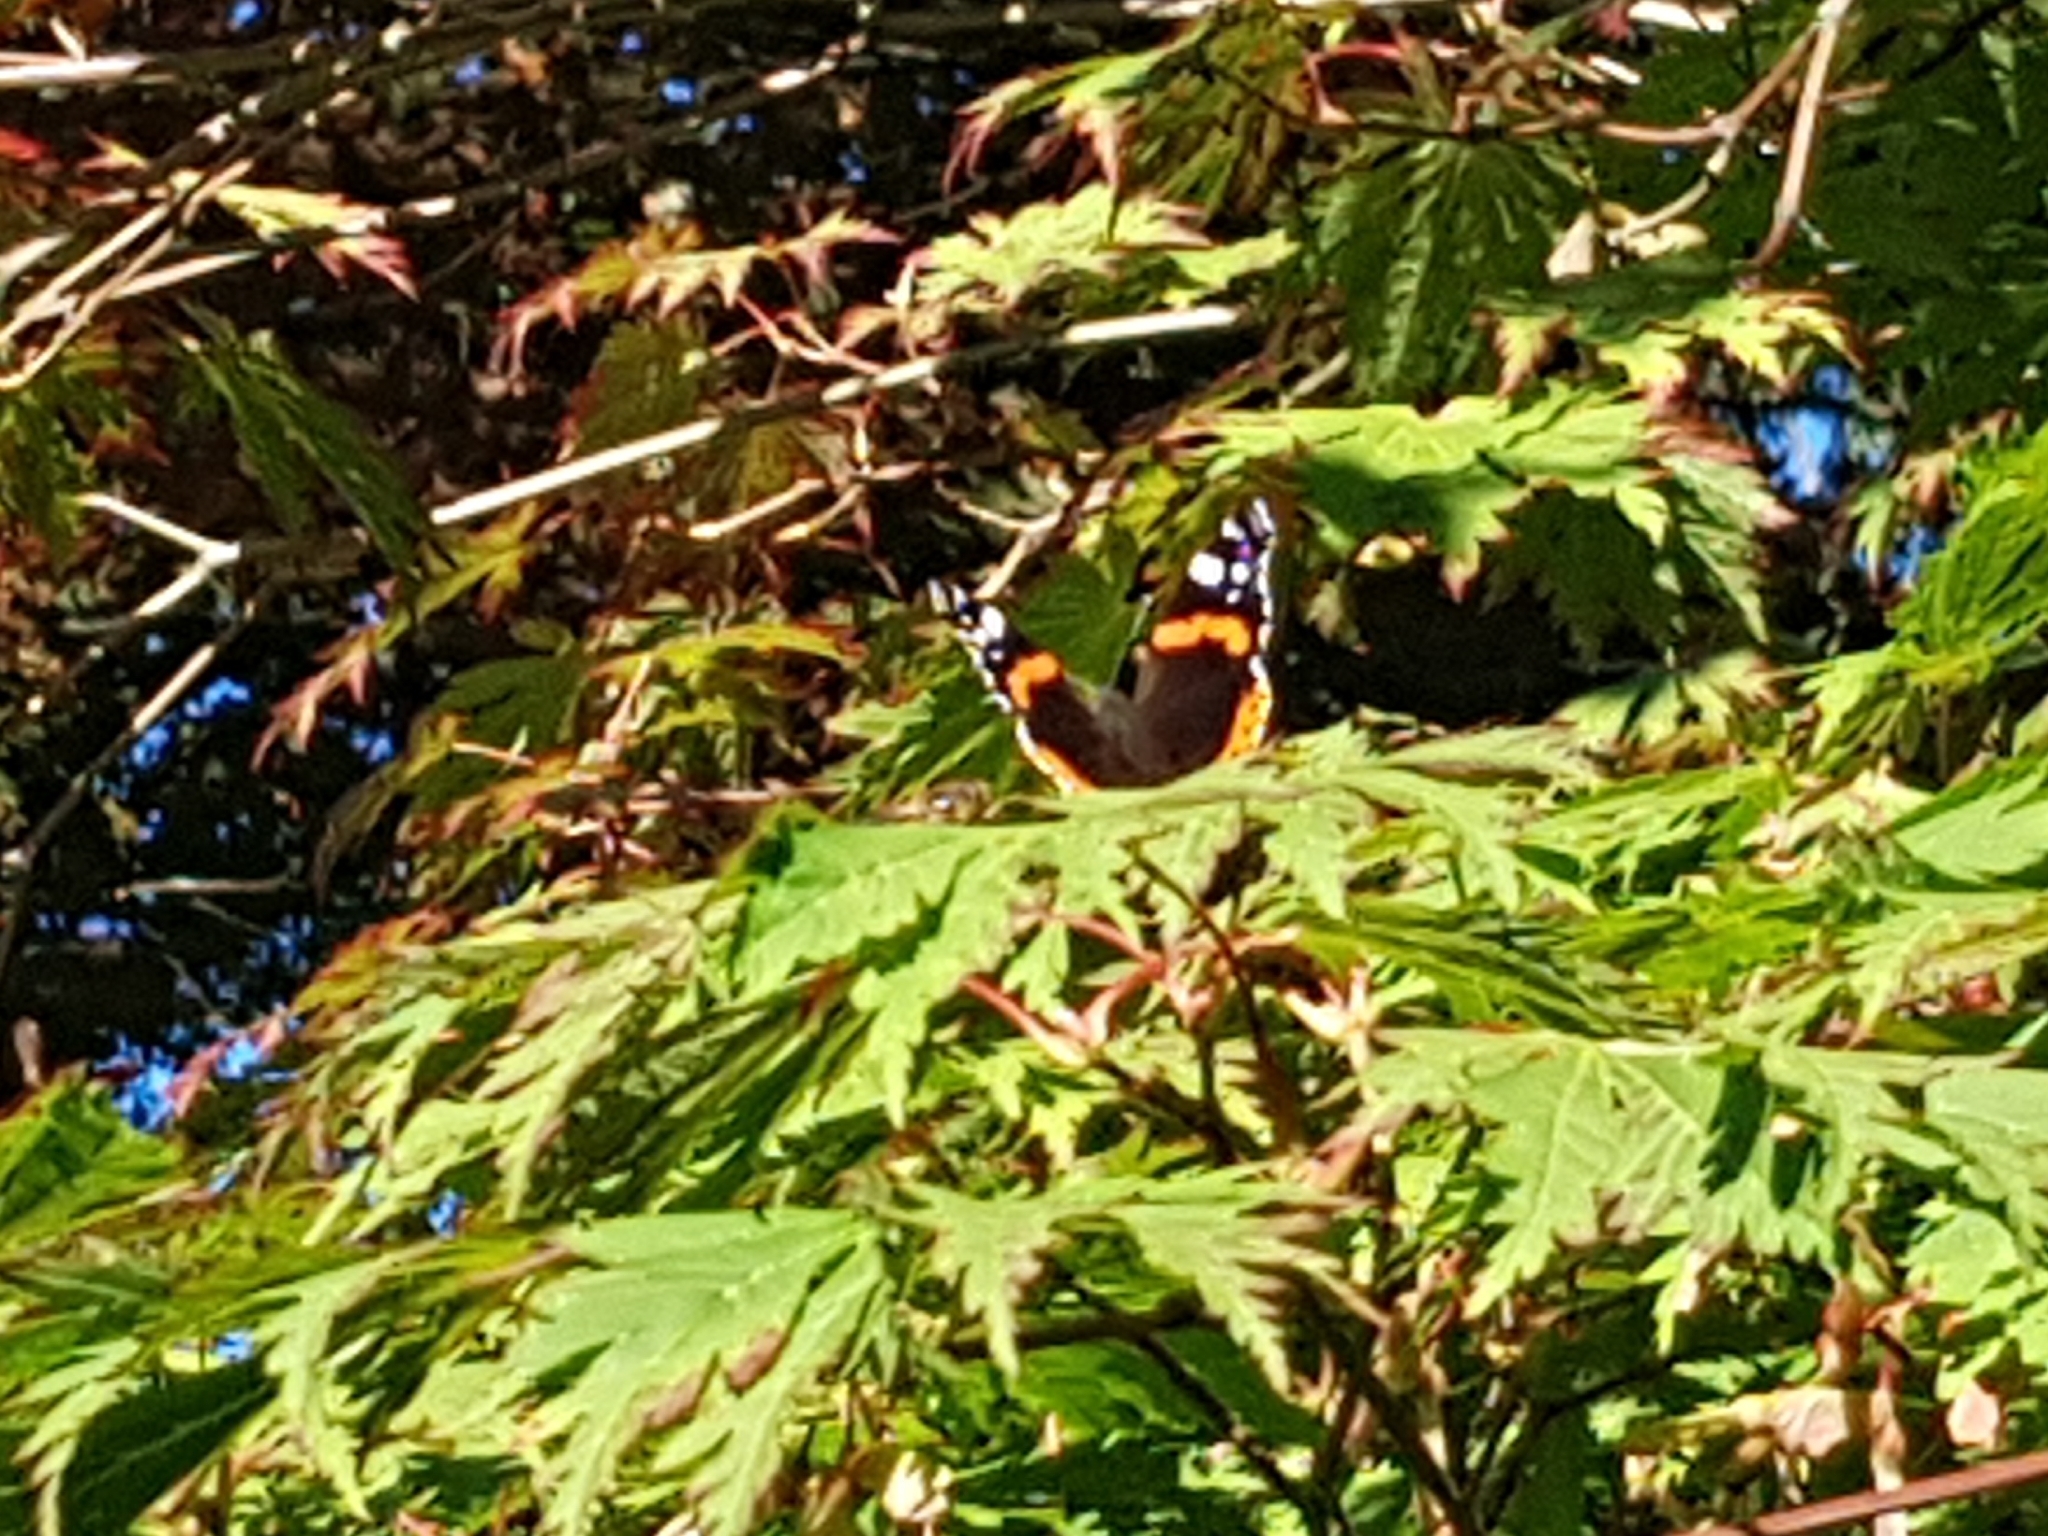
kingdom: Animalia
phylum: Arthropoda
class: Insecta
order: Lepidoptera
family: Nymphalidae
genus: Vanessa
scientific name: Vanessa atalanta
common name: Red admiral
